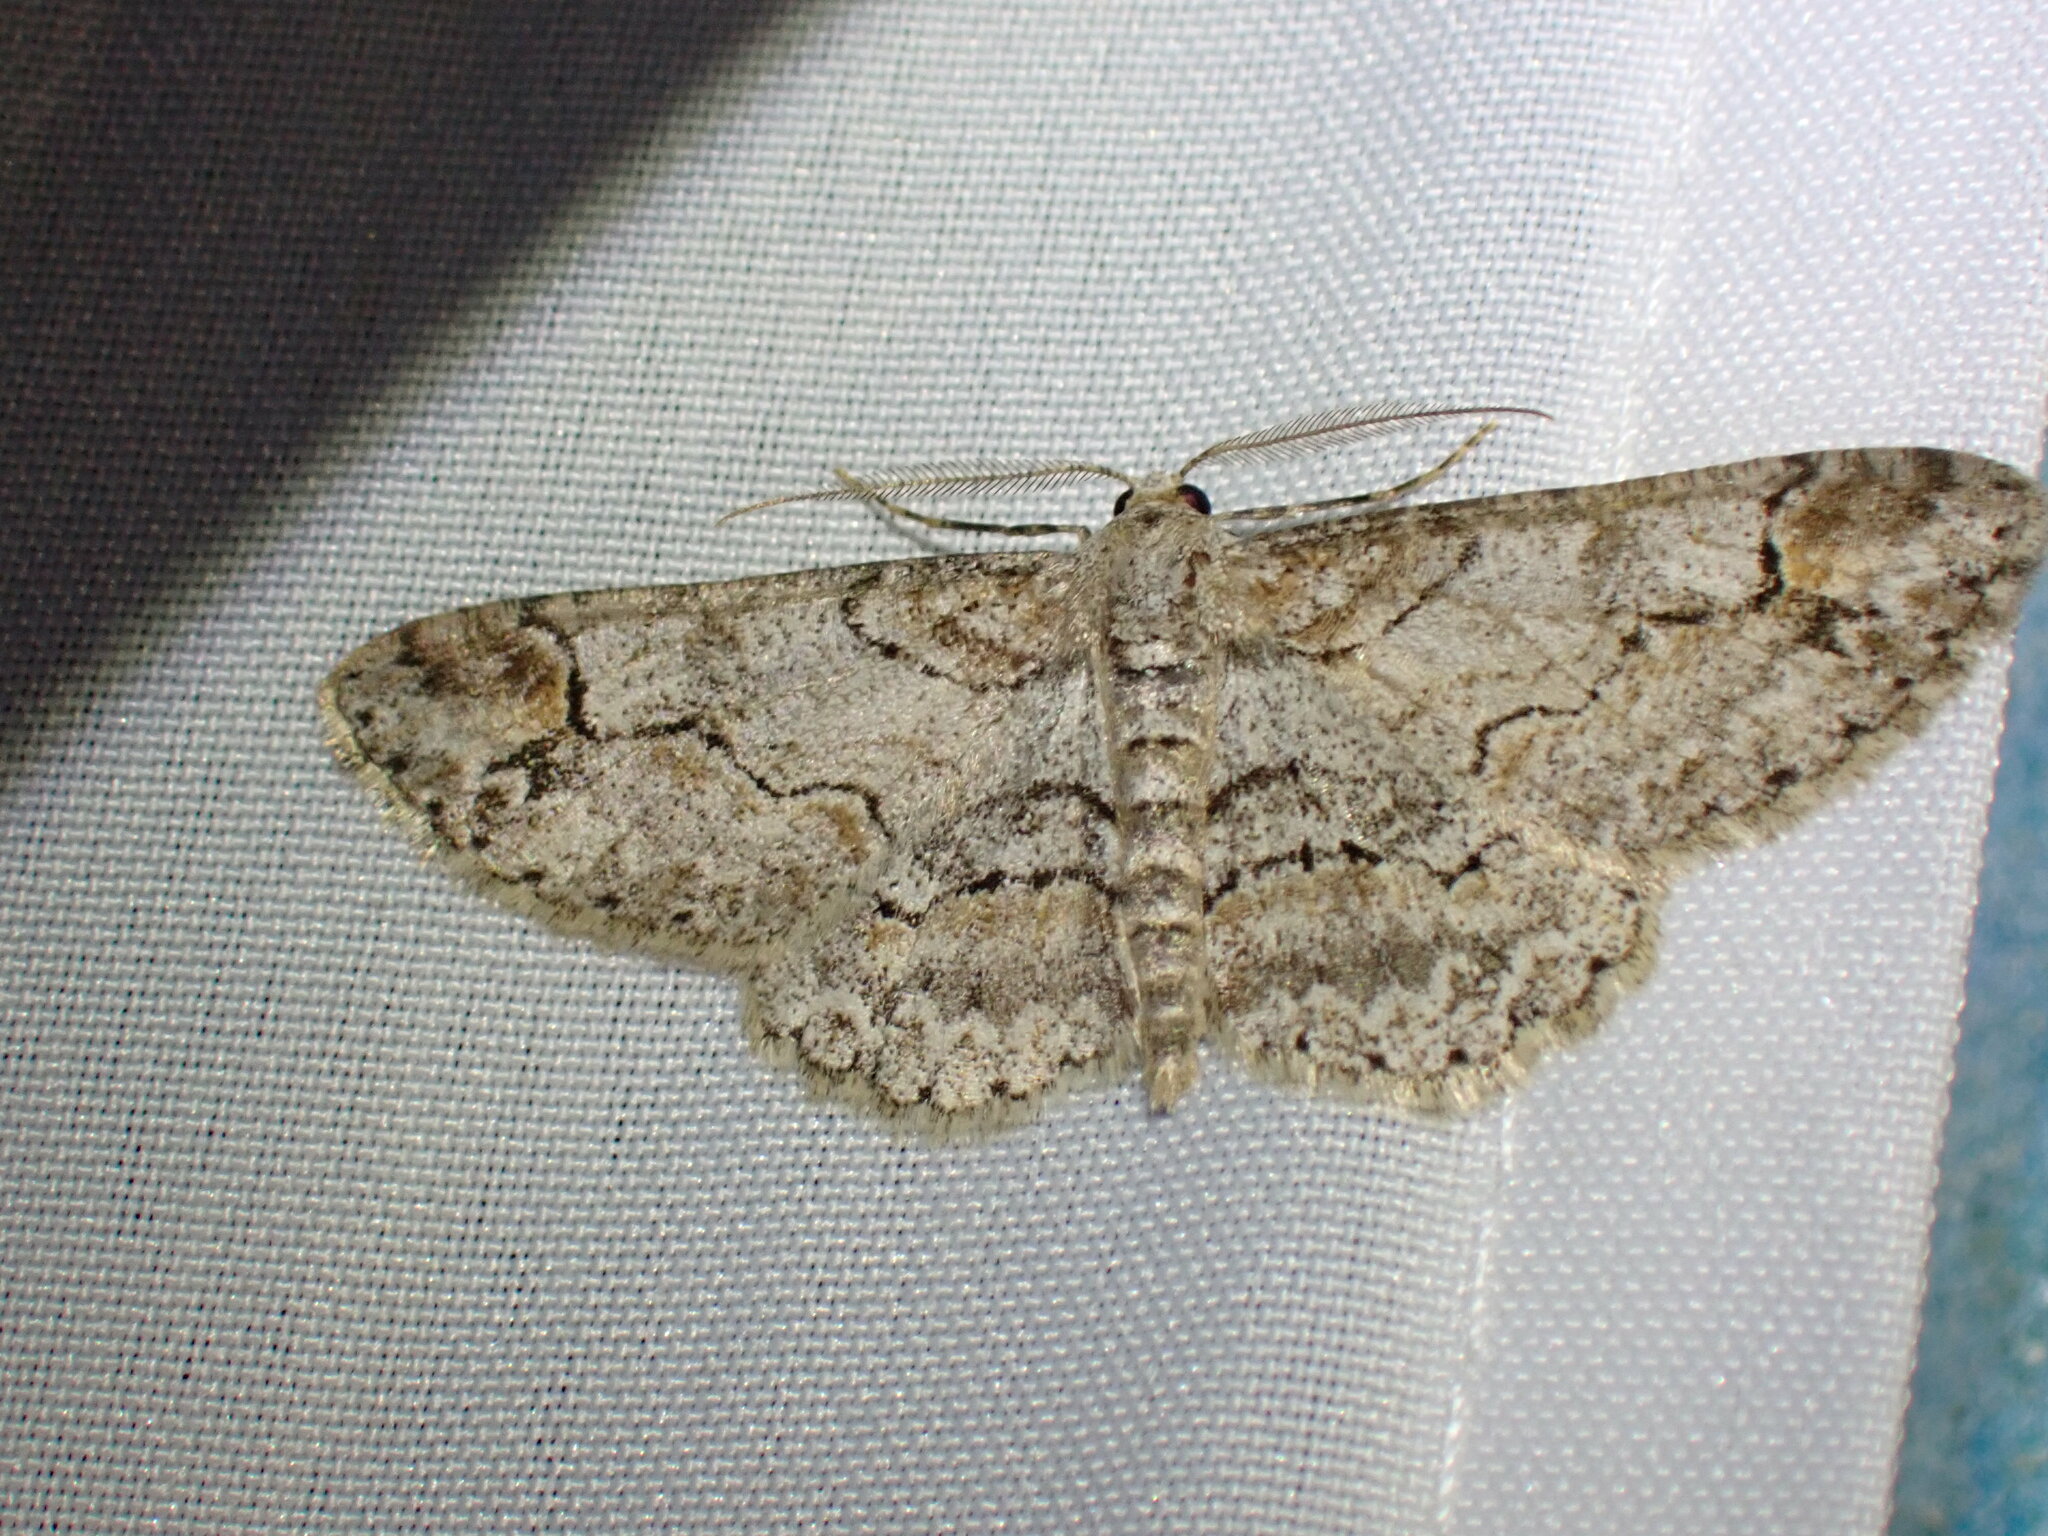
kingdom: Animalia
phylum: Arthropoda
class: Insecta
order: Lepidoptera
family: Geometridae
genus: Iridopsis
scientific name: Iridopsis emasculatum
